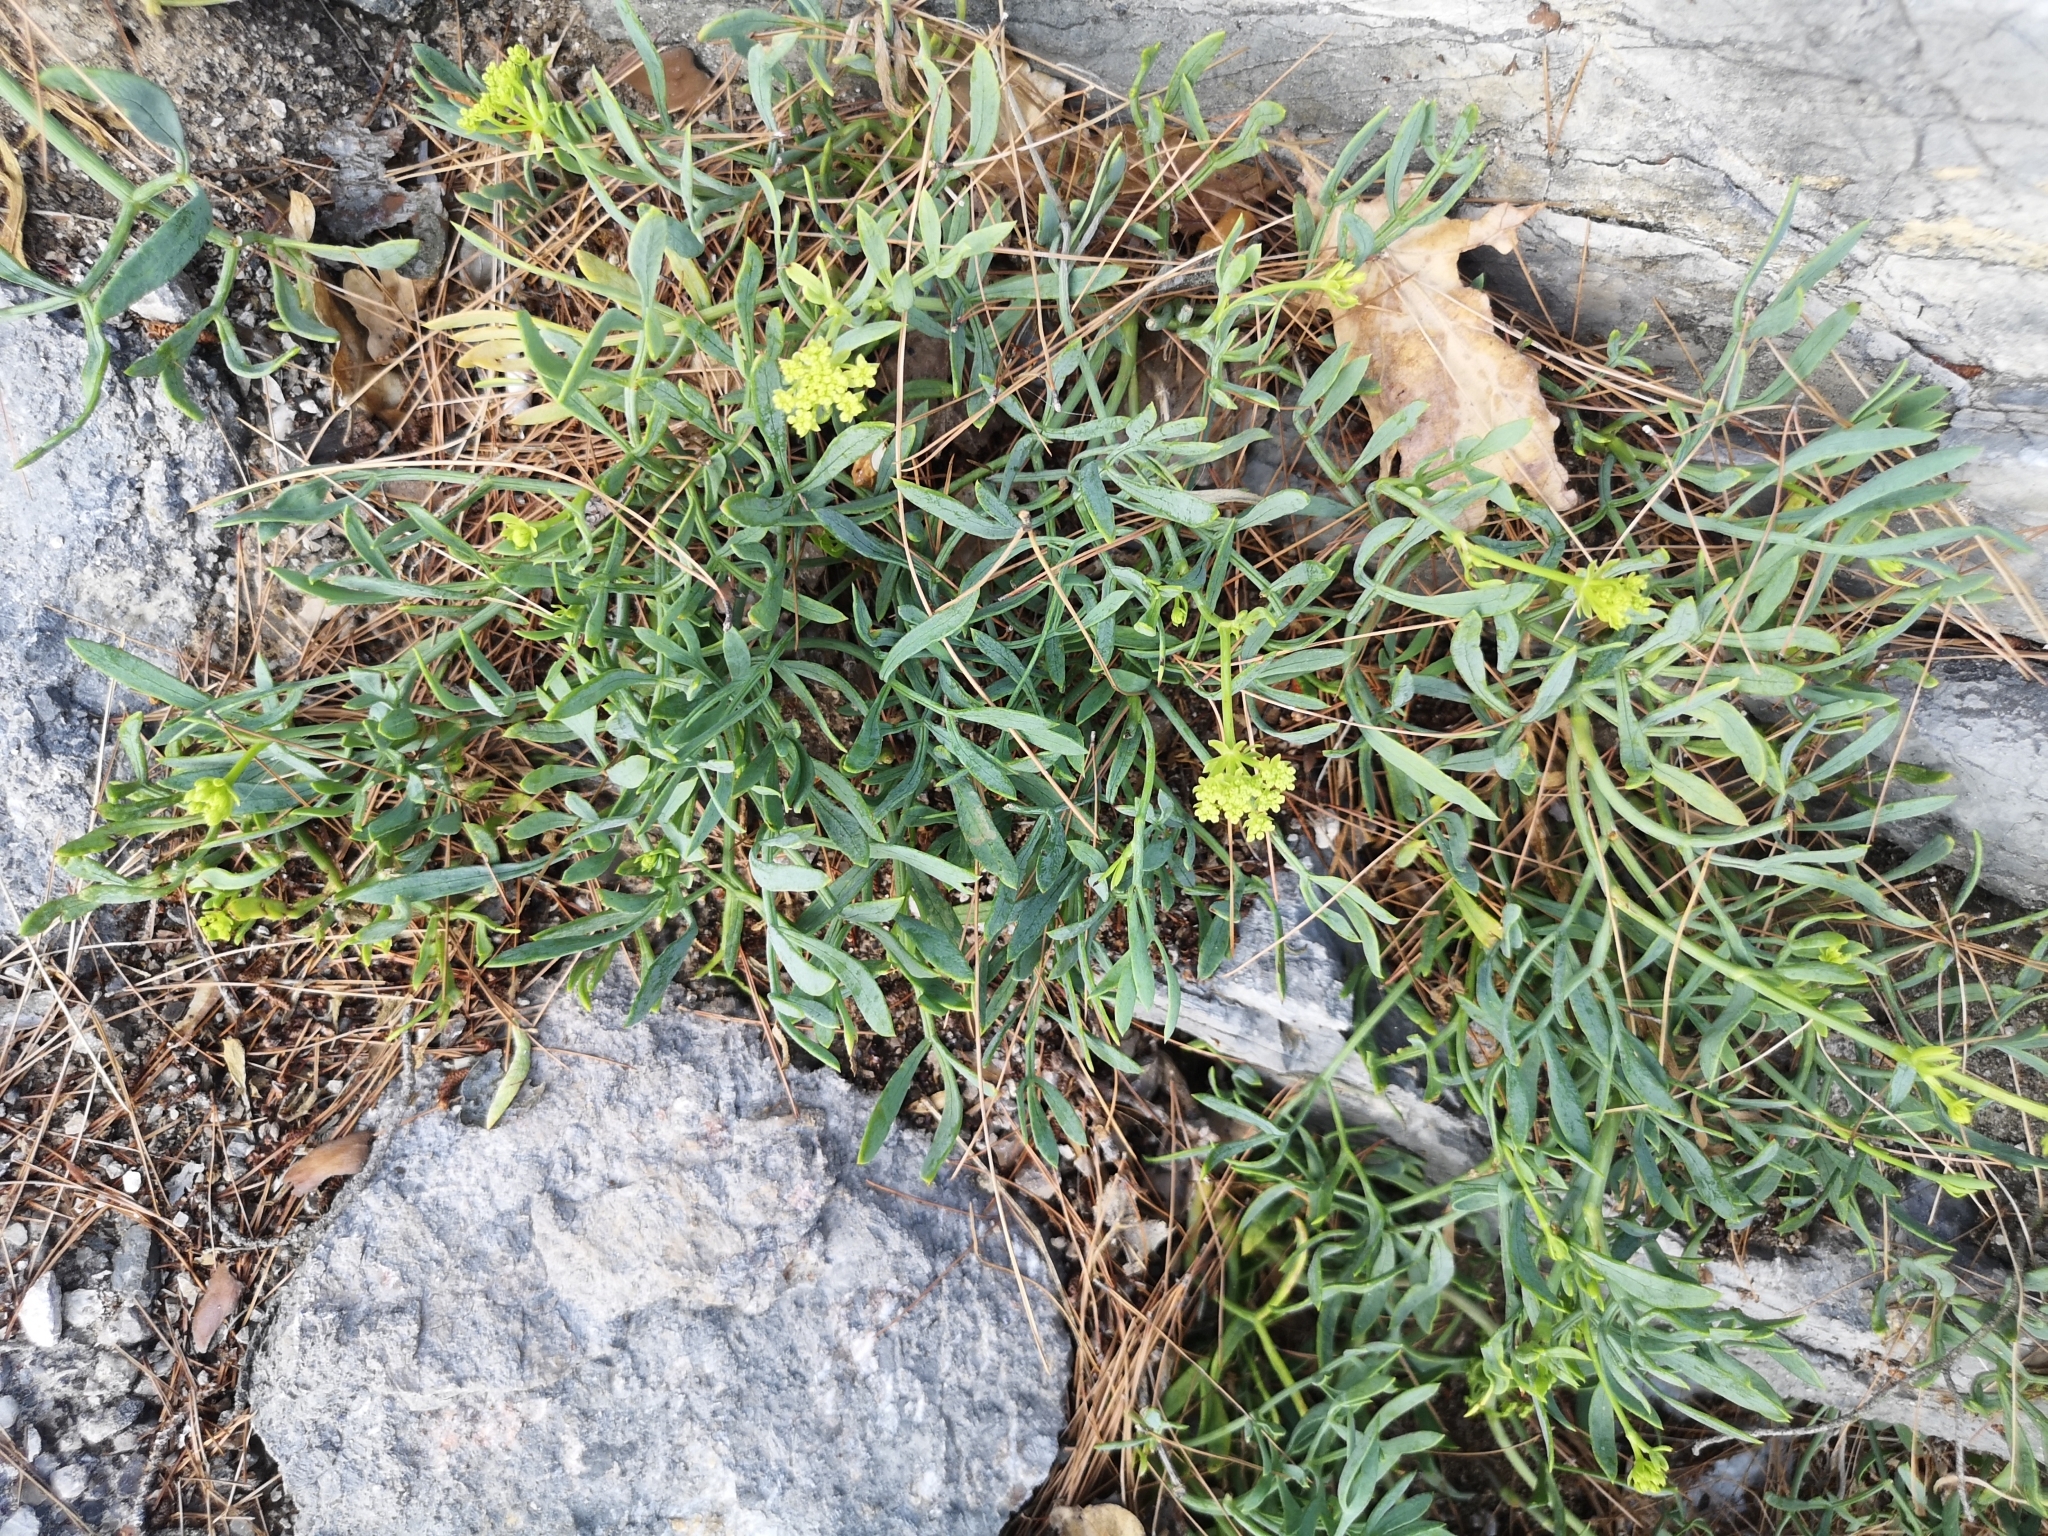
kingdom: Plantae
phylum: Tracheophyta
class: Magnoliopsida
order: Apiales
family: Apiaceae
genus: Crithmum
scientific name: Crithmum maritimum
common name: Rock samphire
